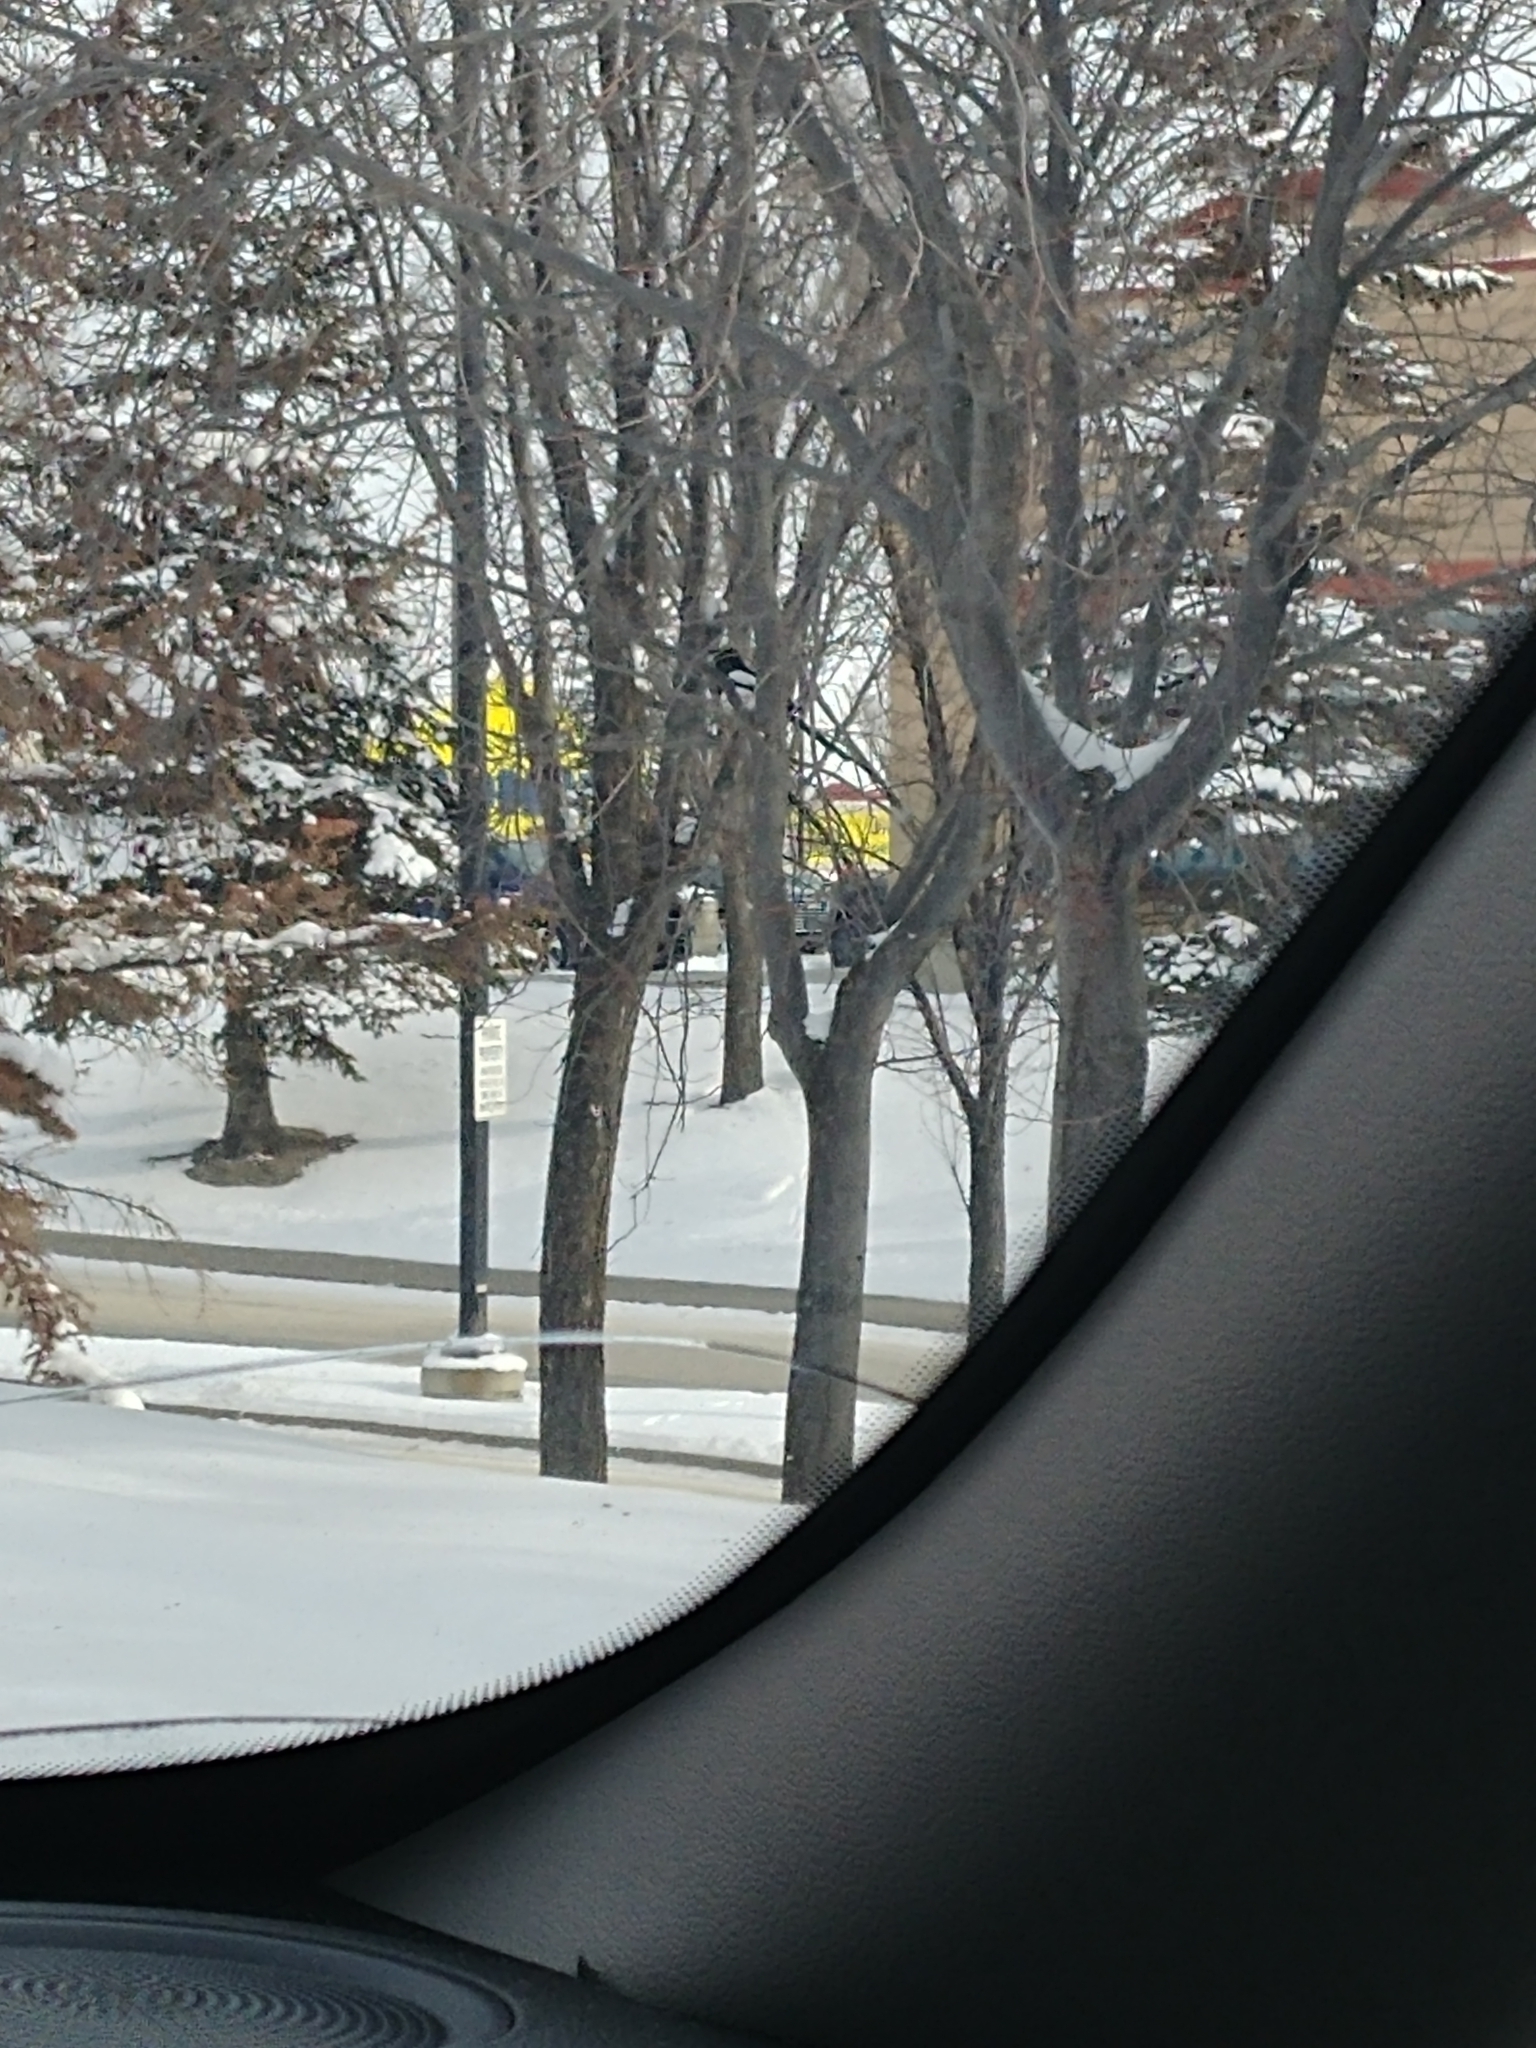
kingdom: Animalia
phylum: Chordata
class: Aves
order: Passeriformes
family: Corvidae
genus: Pica
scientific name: Pica hudsonia
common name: Black-billed magpie
